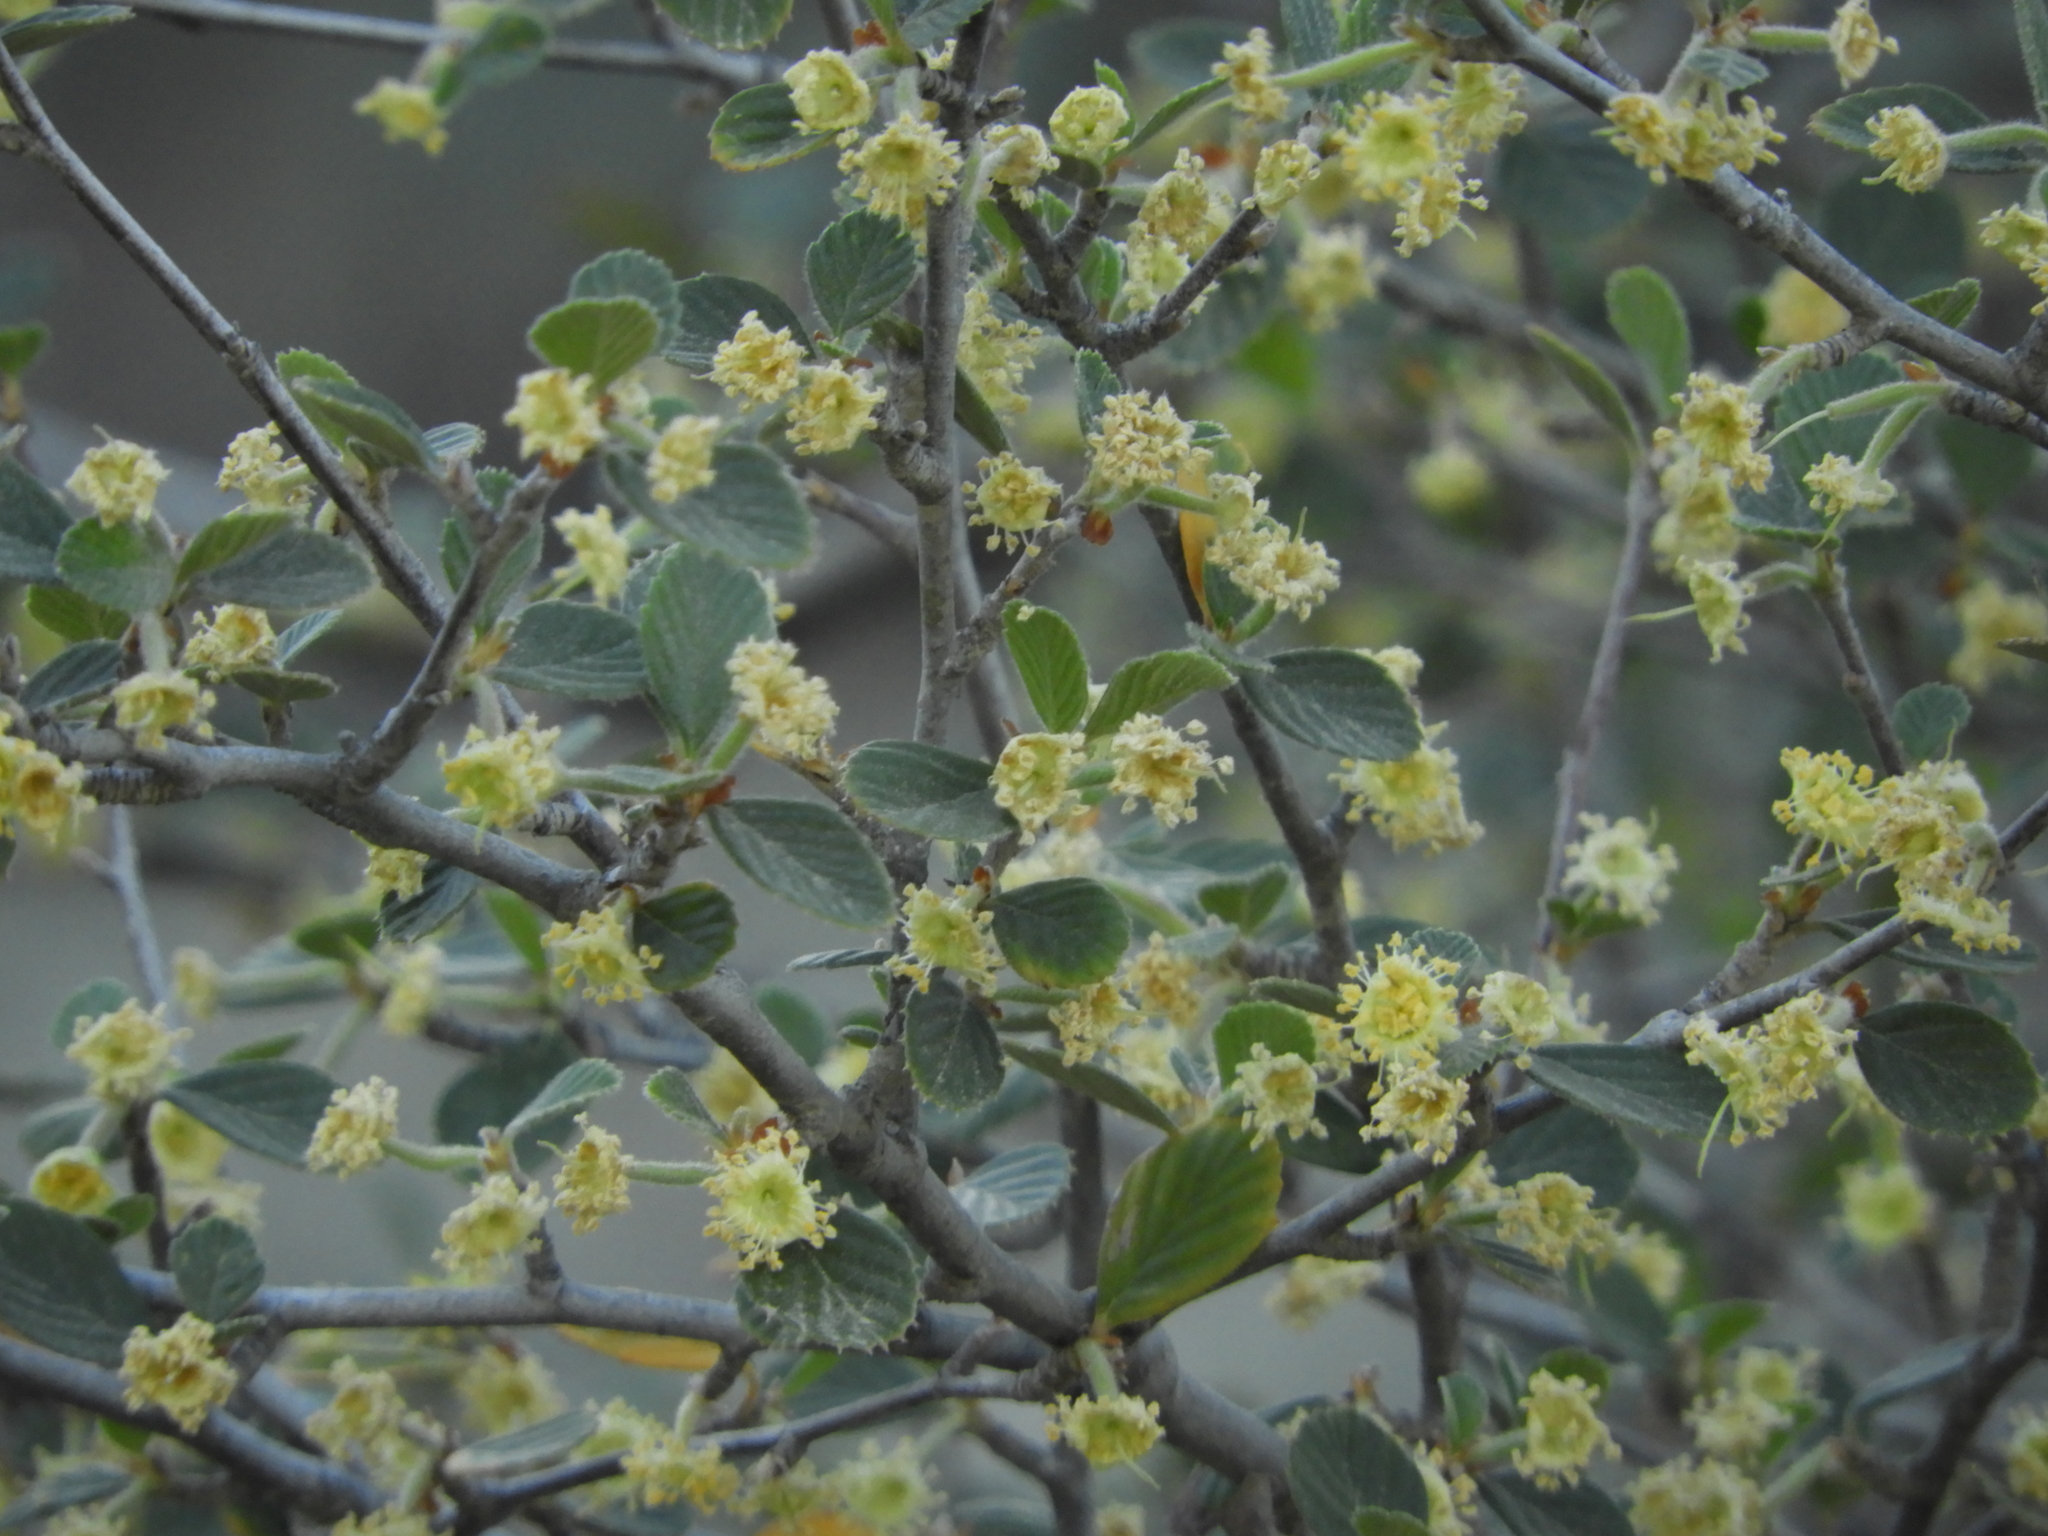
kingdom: Plantae
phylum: Tracheophyta
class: Magnoliopsida
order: Rosales
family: Rosaceae
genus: Cercocarpus
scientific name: Cercocarpus betuloides
